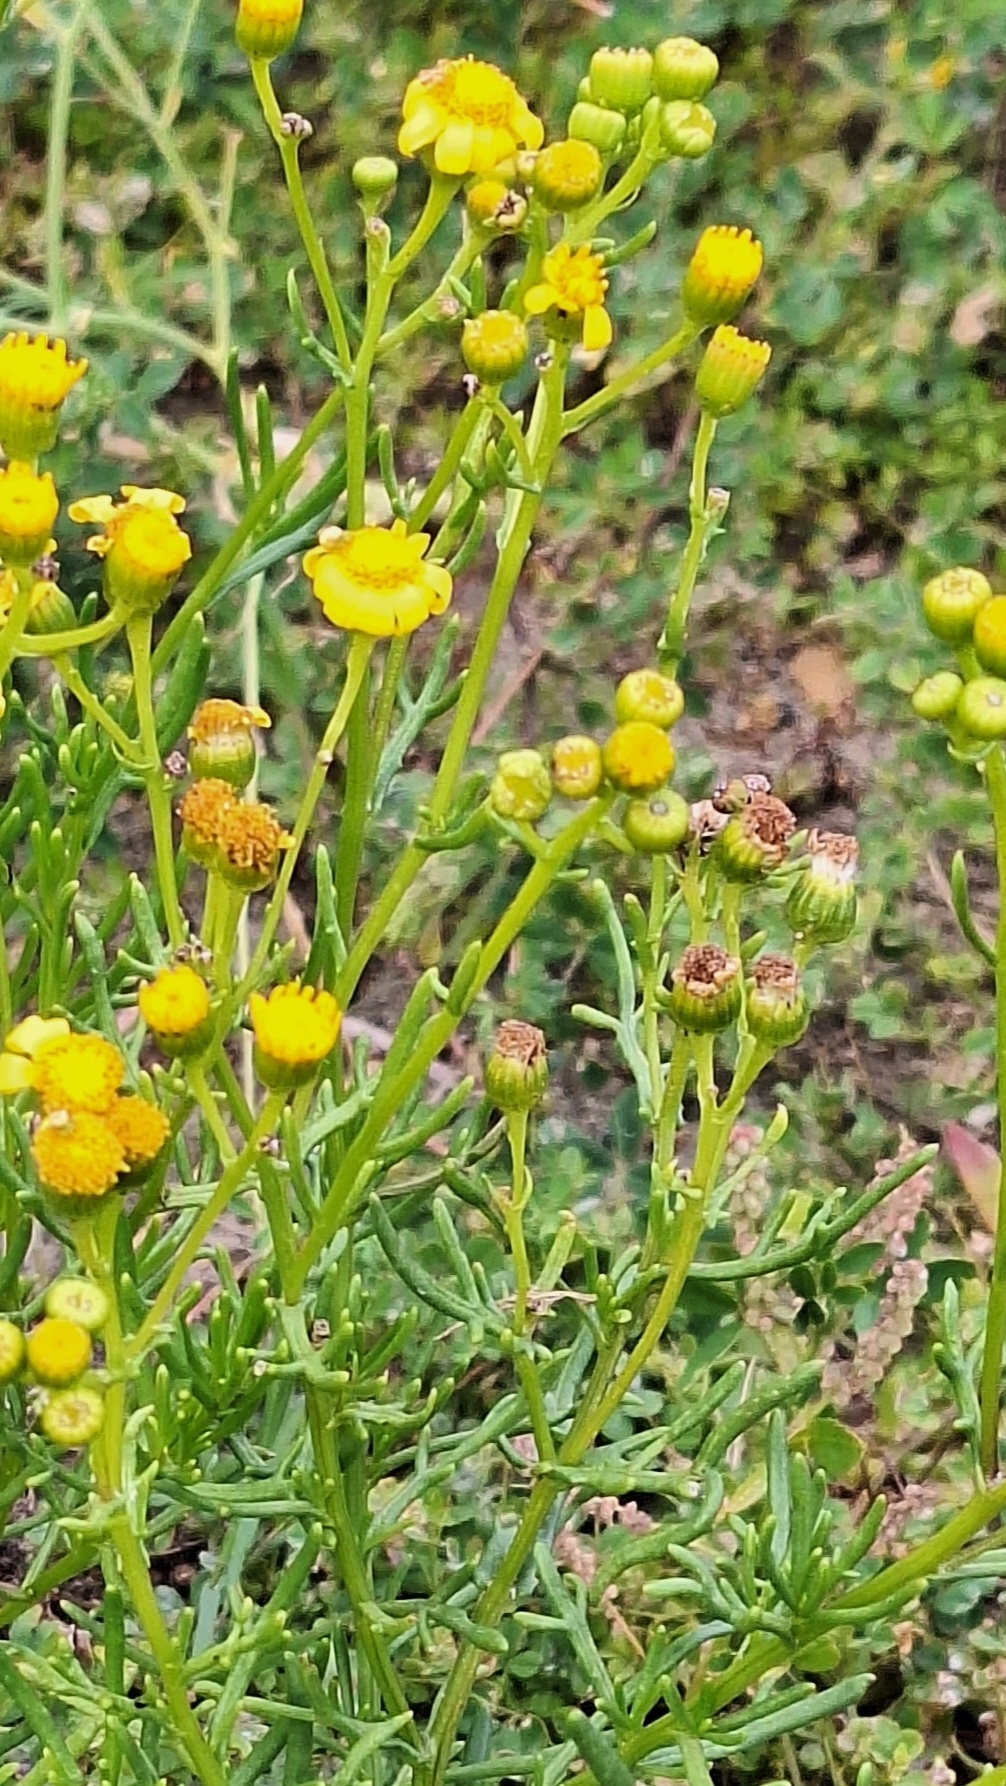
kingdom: Plantae
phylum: Tracheophyta
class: Magnoliopsida
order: Asterales
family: Asteraceae
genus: Senecio
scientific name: Senecio pinnatifolius
